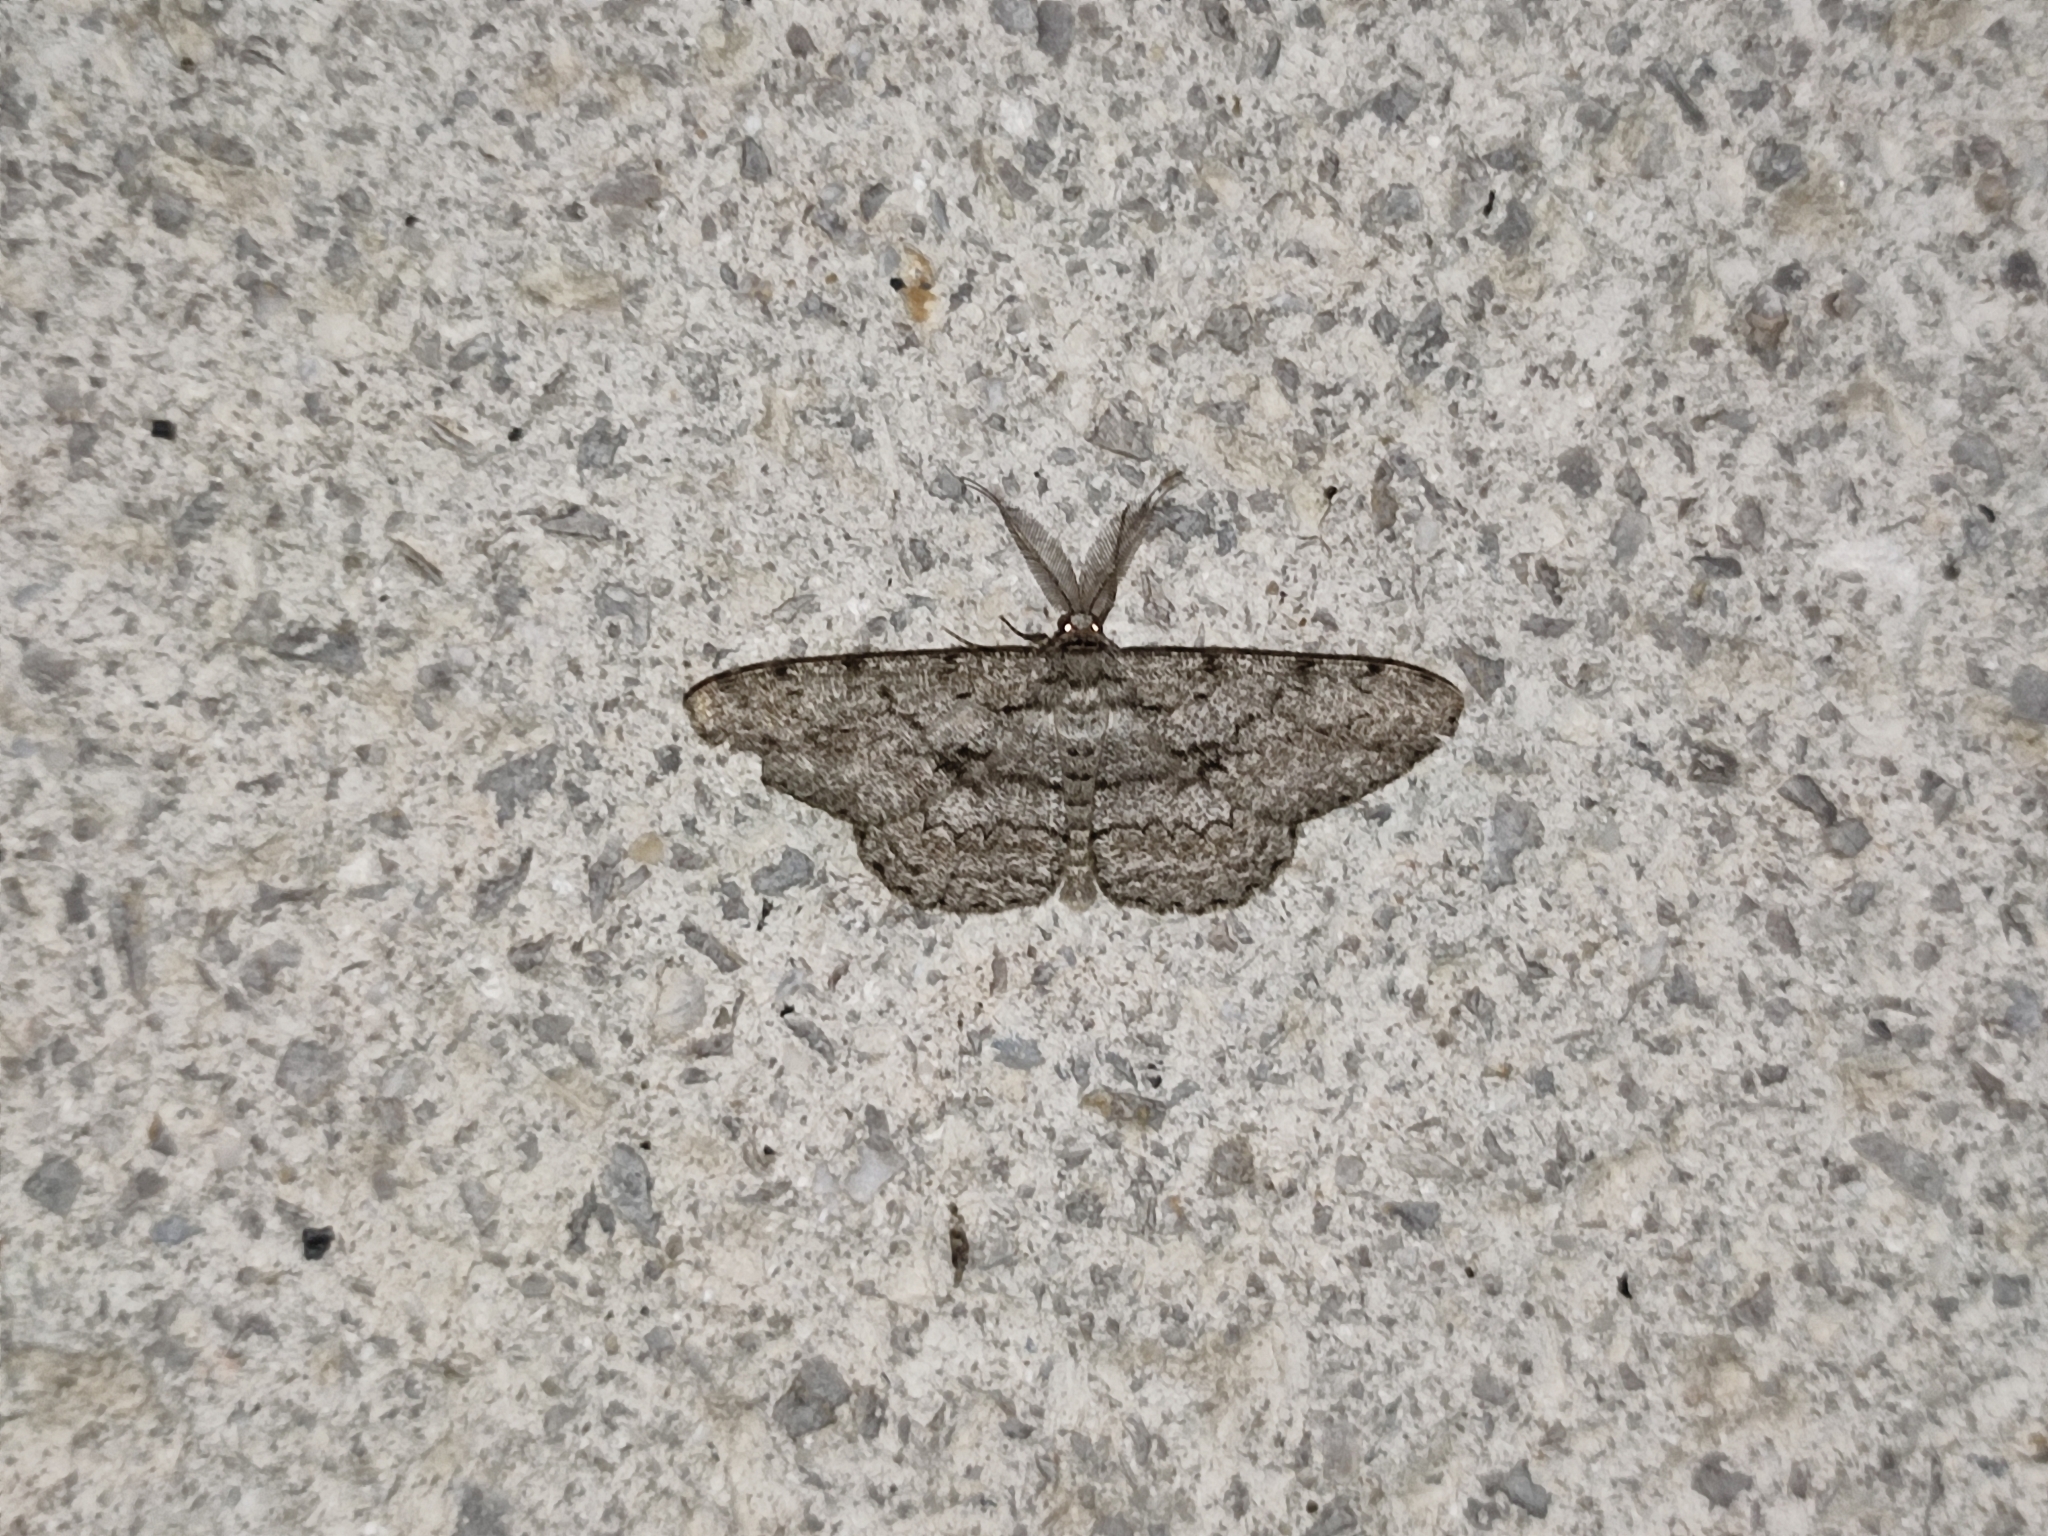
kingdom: Animalia
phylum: Arthropoda
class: Insecta
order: Lepidoptera
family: Geometridae
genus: Hypomecis
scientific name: Hypomecis roboraria
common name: Great oak beauty
